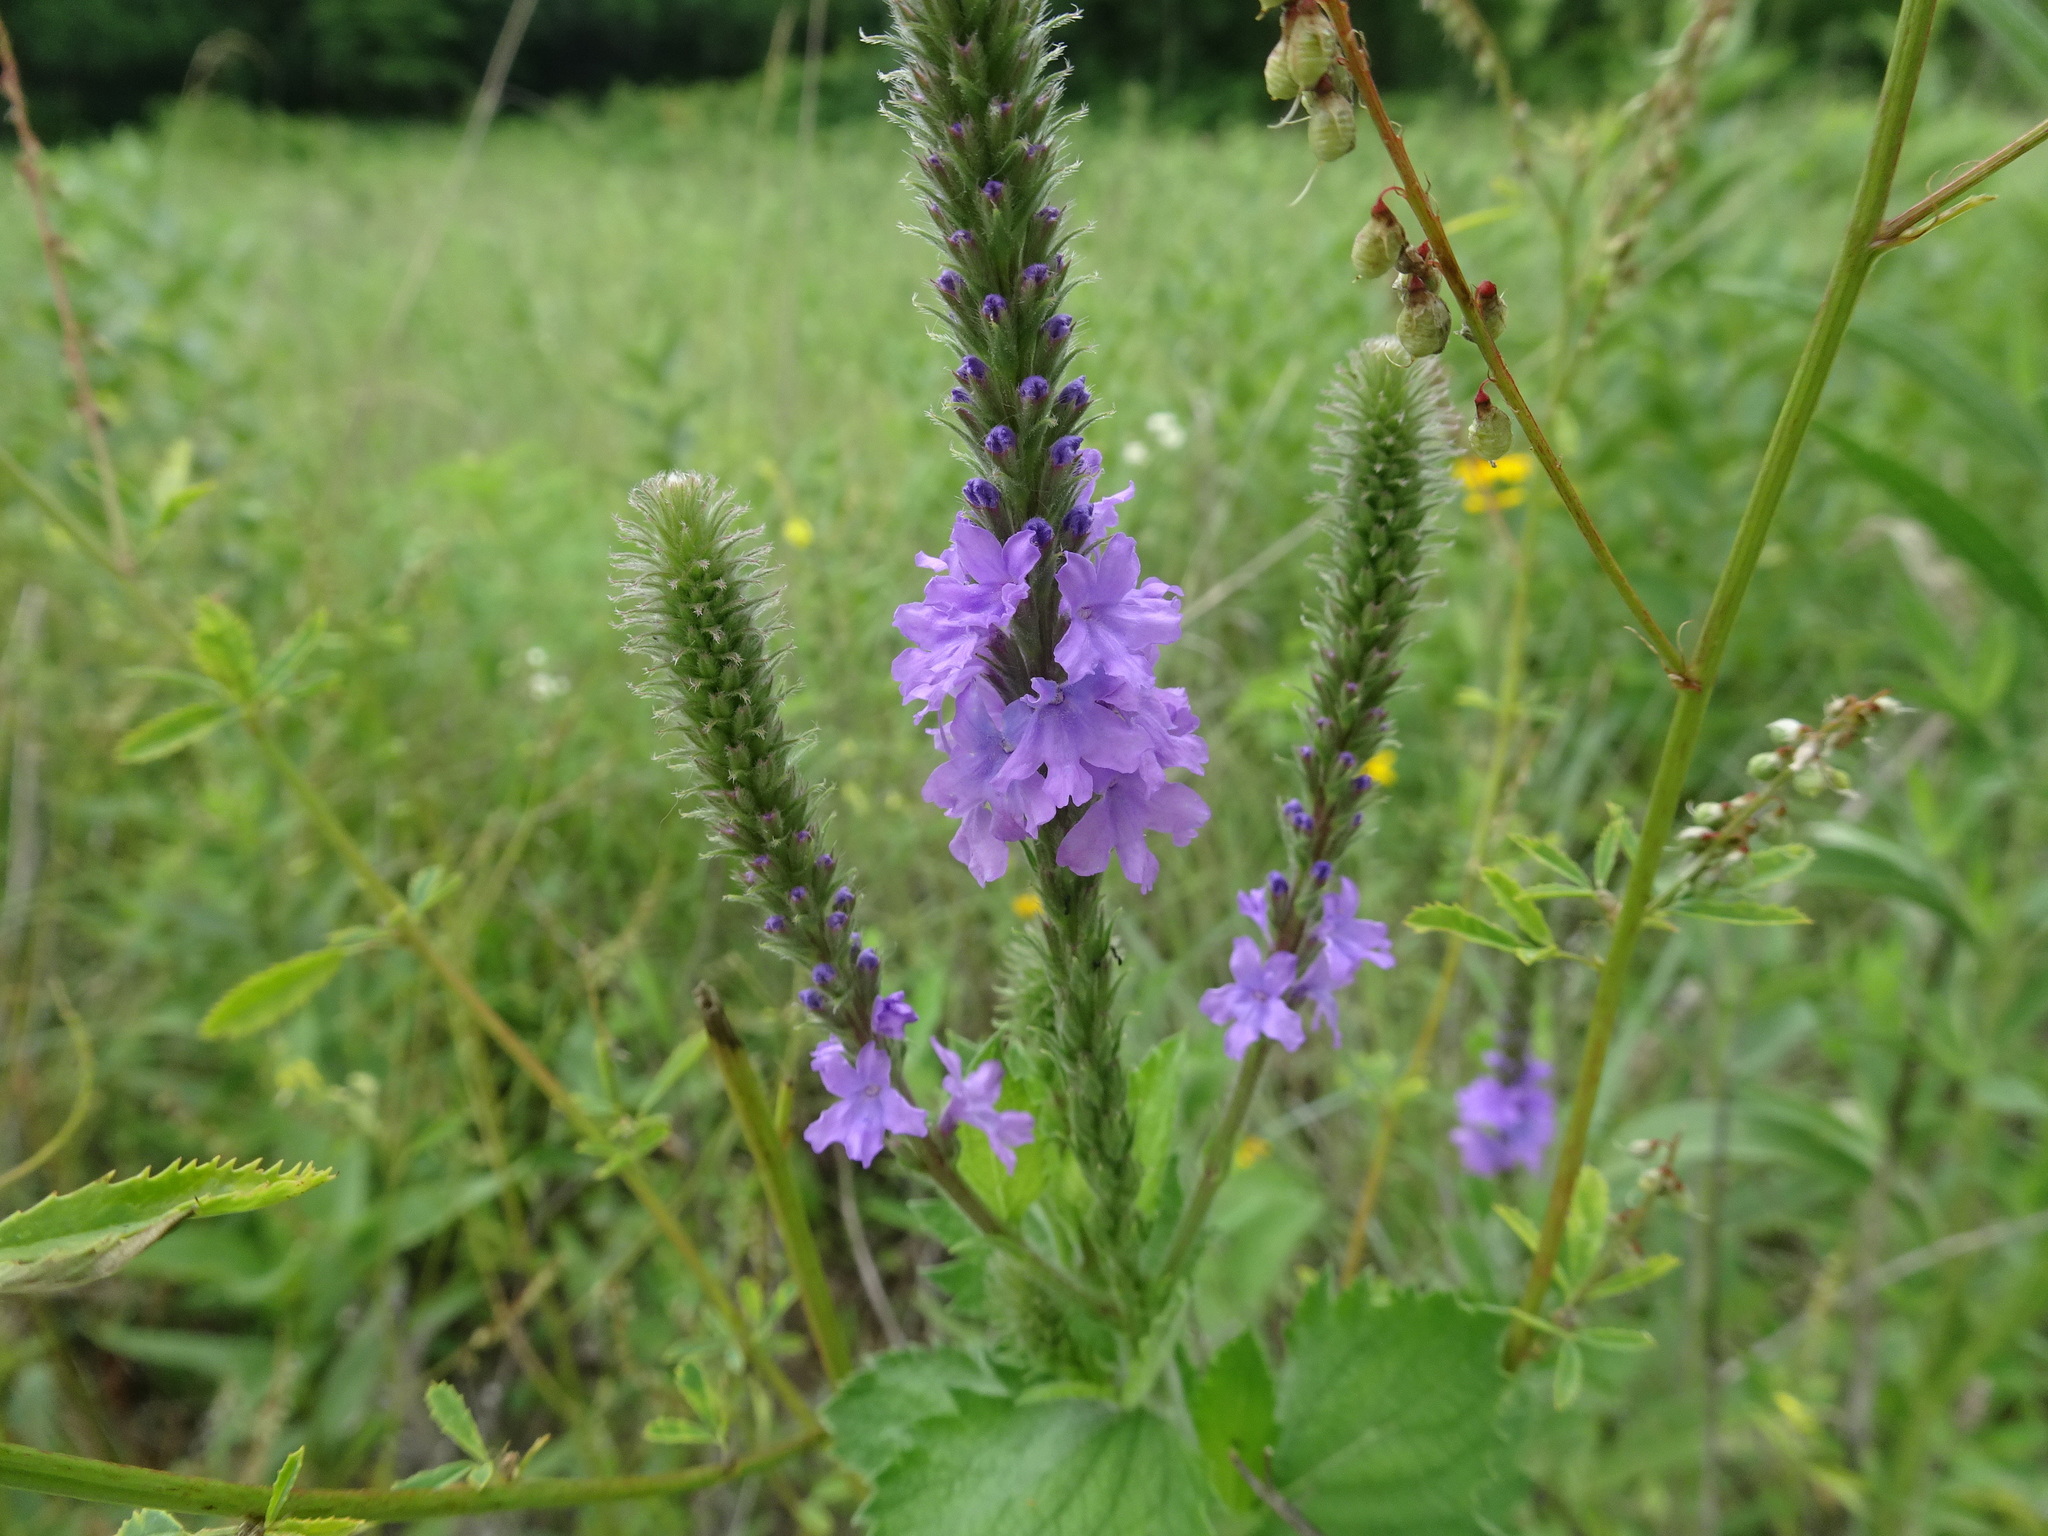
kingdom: Plantae
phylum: Tracheophyta
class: Magnoliopsida
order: Lamiales
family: Verbenaceae
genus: Verbena
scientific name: Verbena stricta
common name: Hoary vervain
